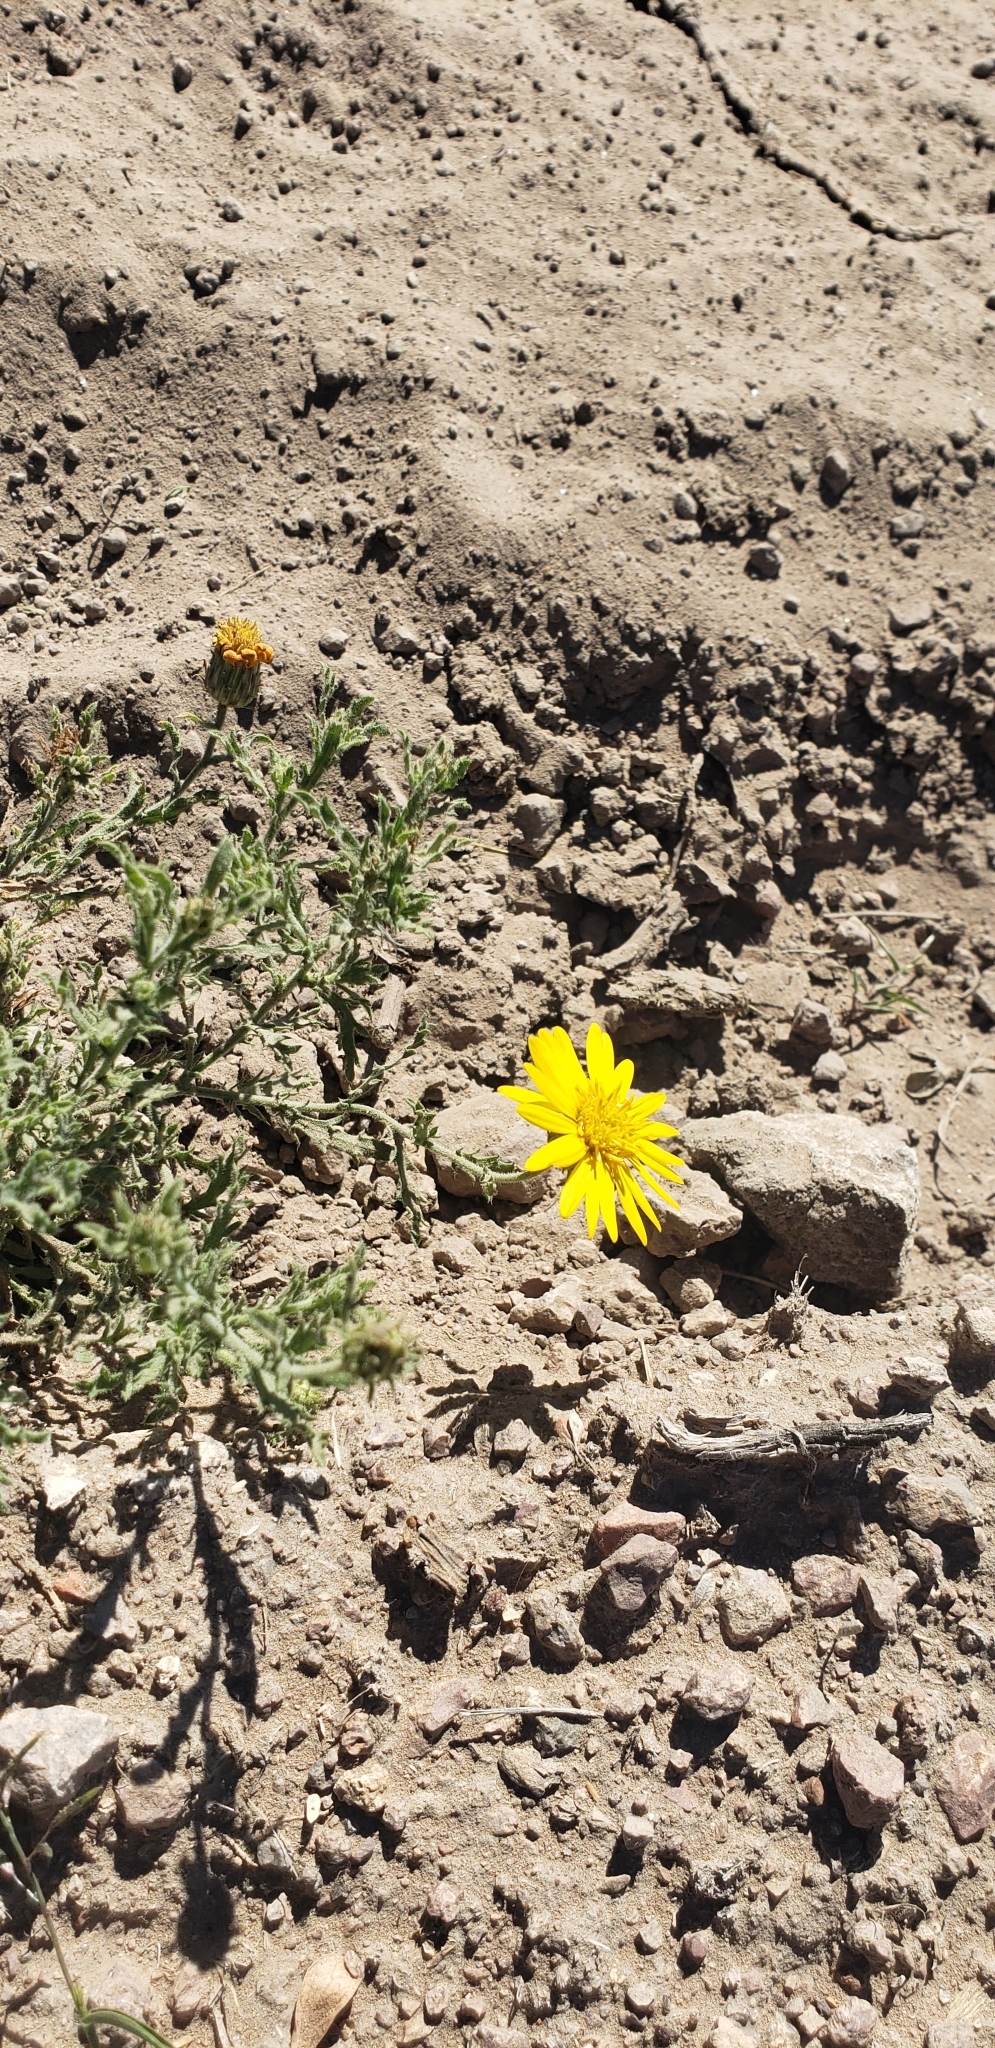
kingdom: Plantae
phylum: Tracheophyta
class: Magnoliopsida
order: Asterales
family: Asteraceae
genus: Xanthisma
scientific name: Xanthisma spinulosum
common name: Spiny goldenweed
